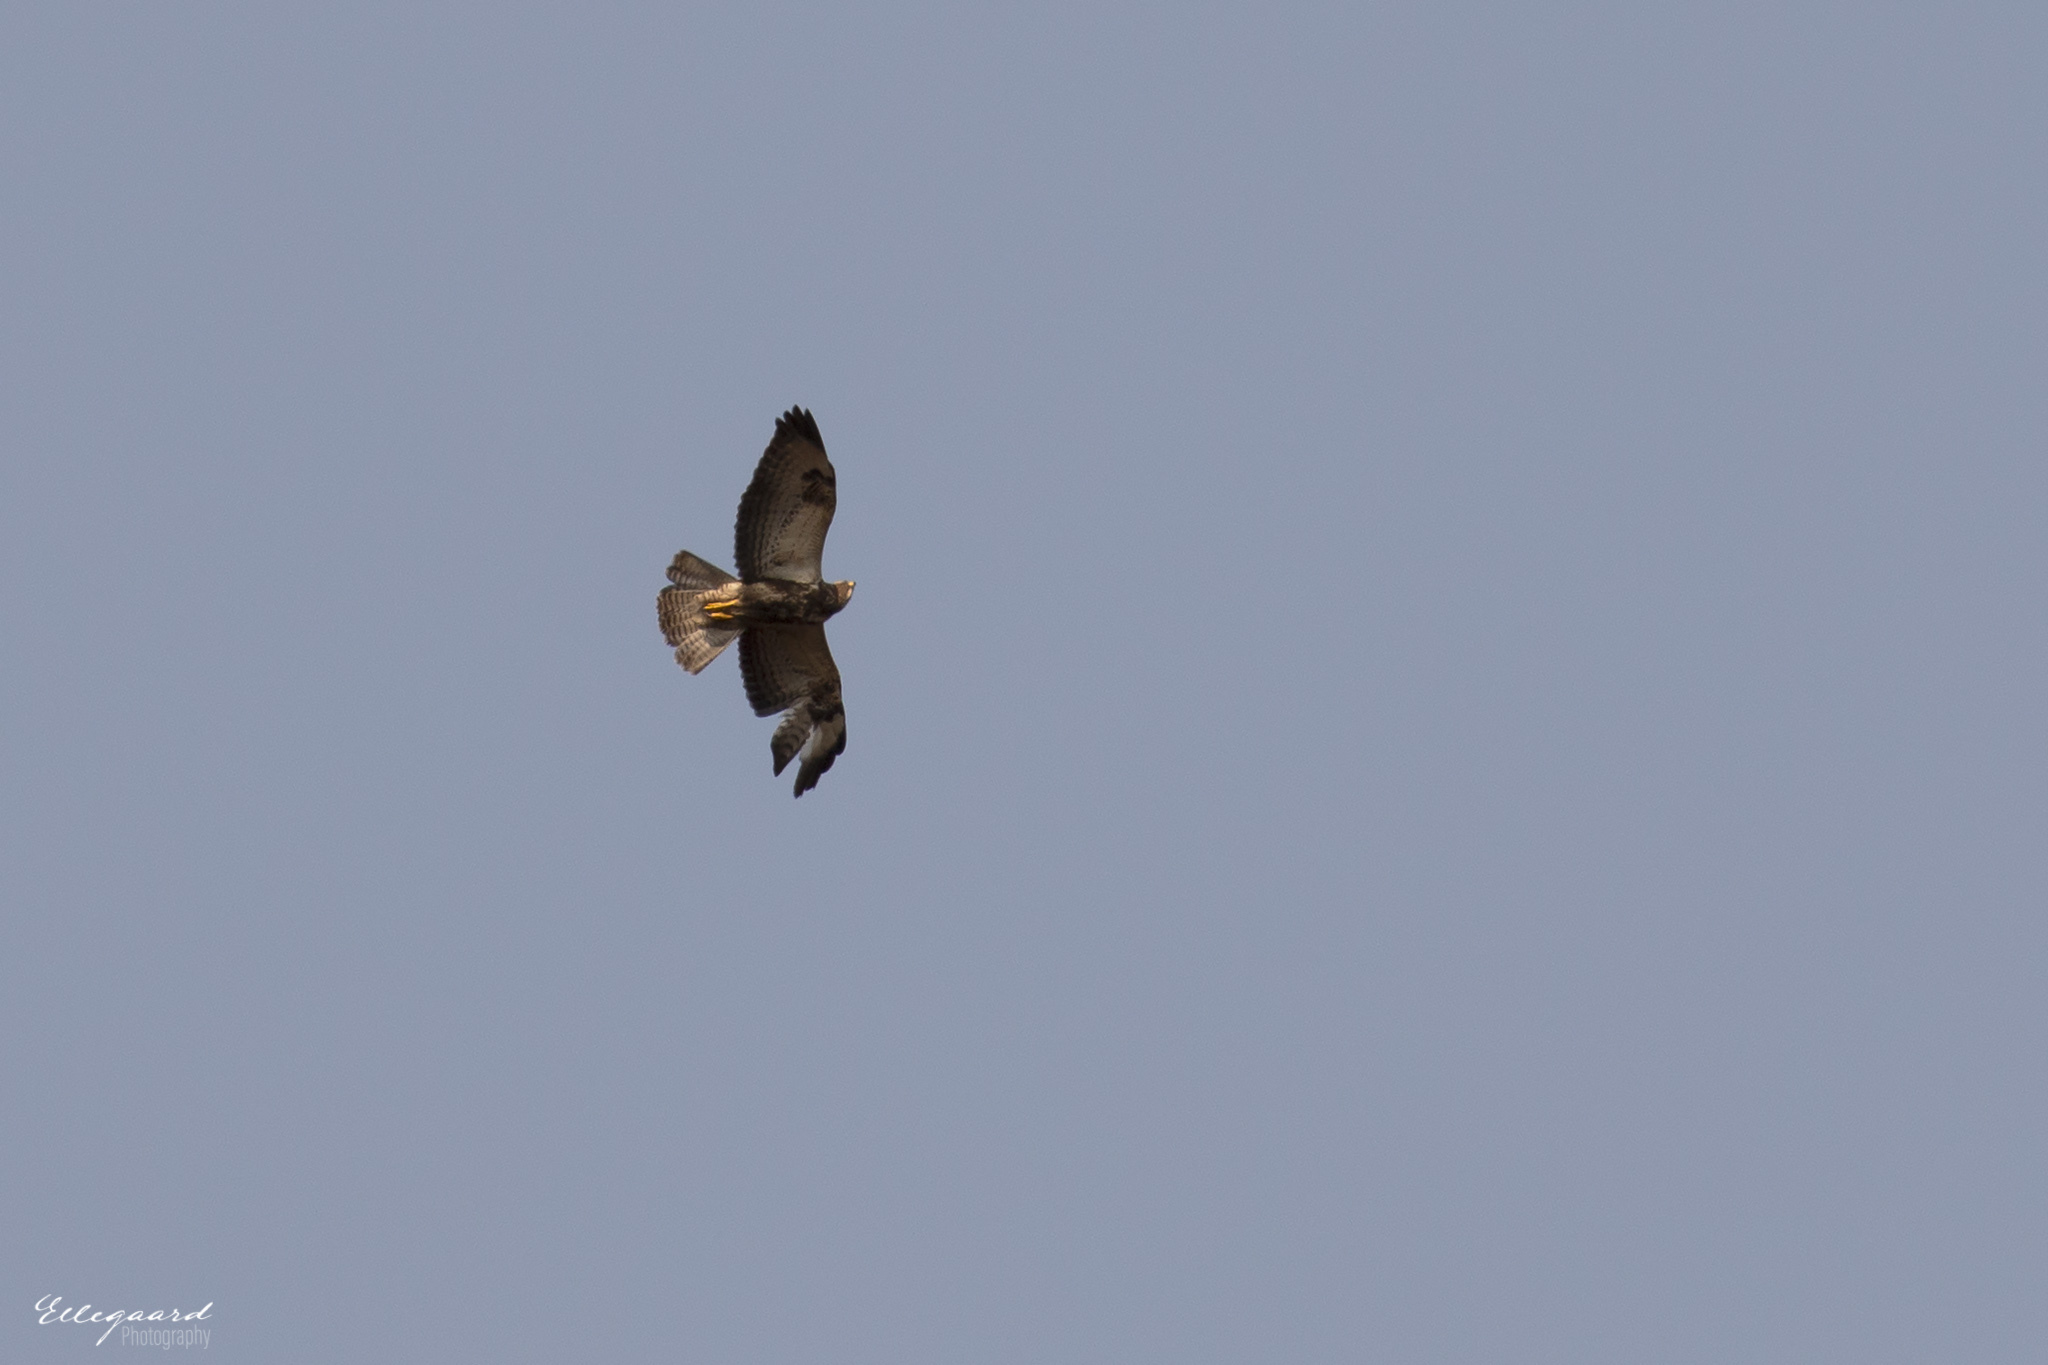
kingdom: Animalia
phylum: Chordata
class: Aves
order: Accipitriformes
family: Accipitridae
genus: Buteo
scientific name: Buteo buteo
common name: Common buzzard
